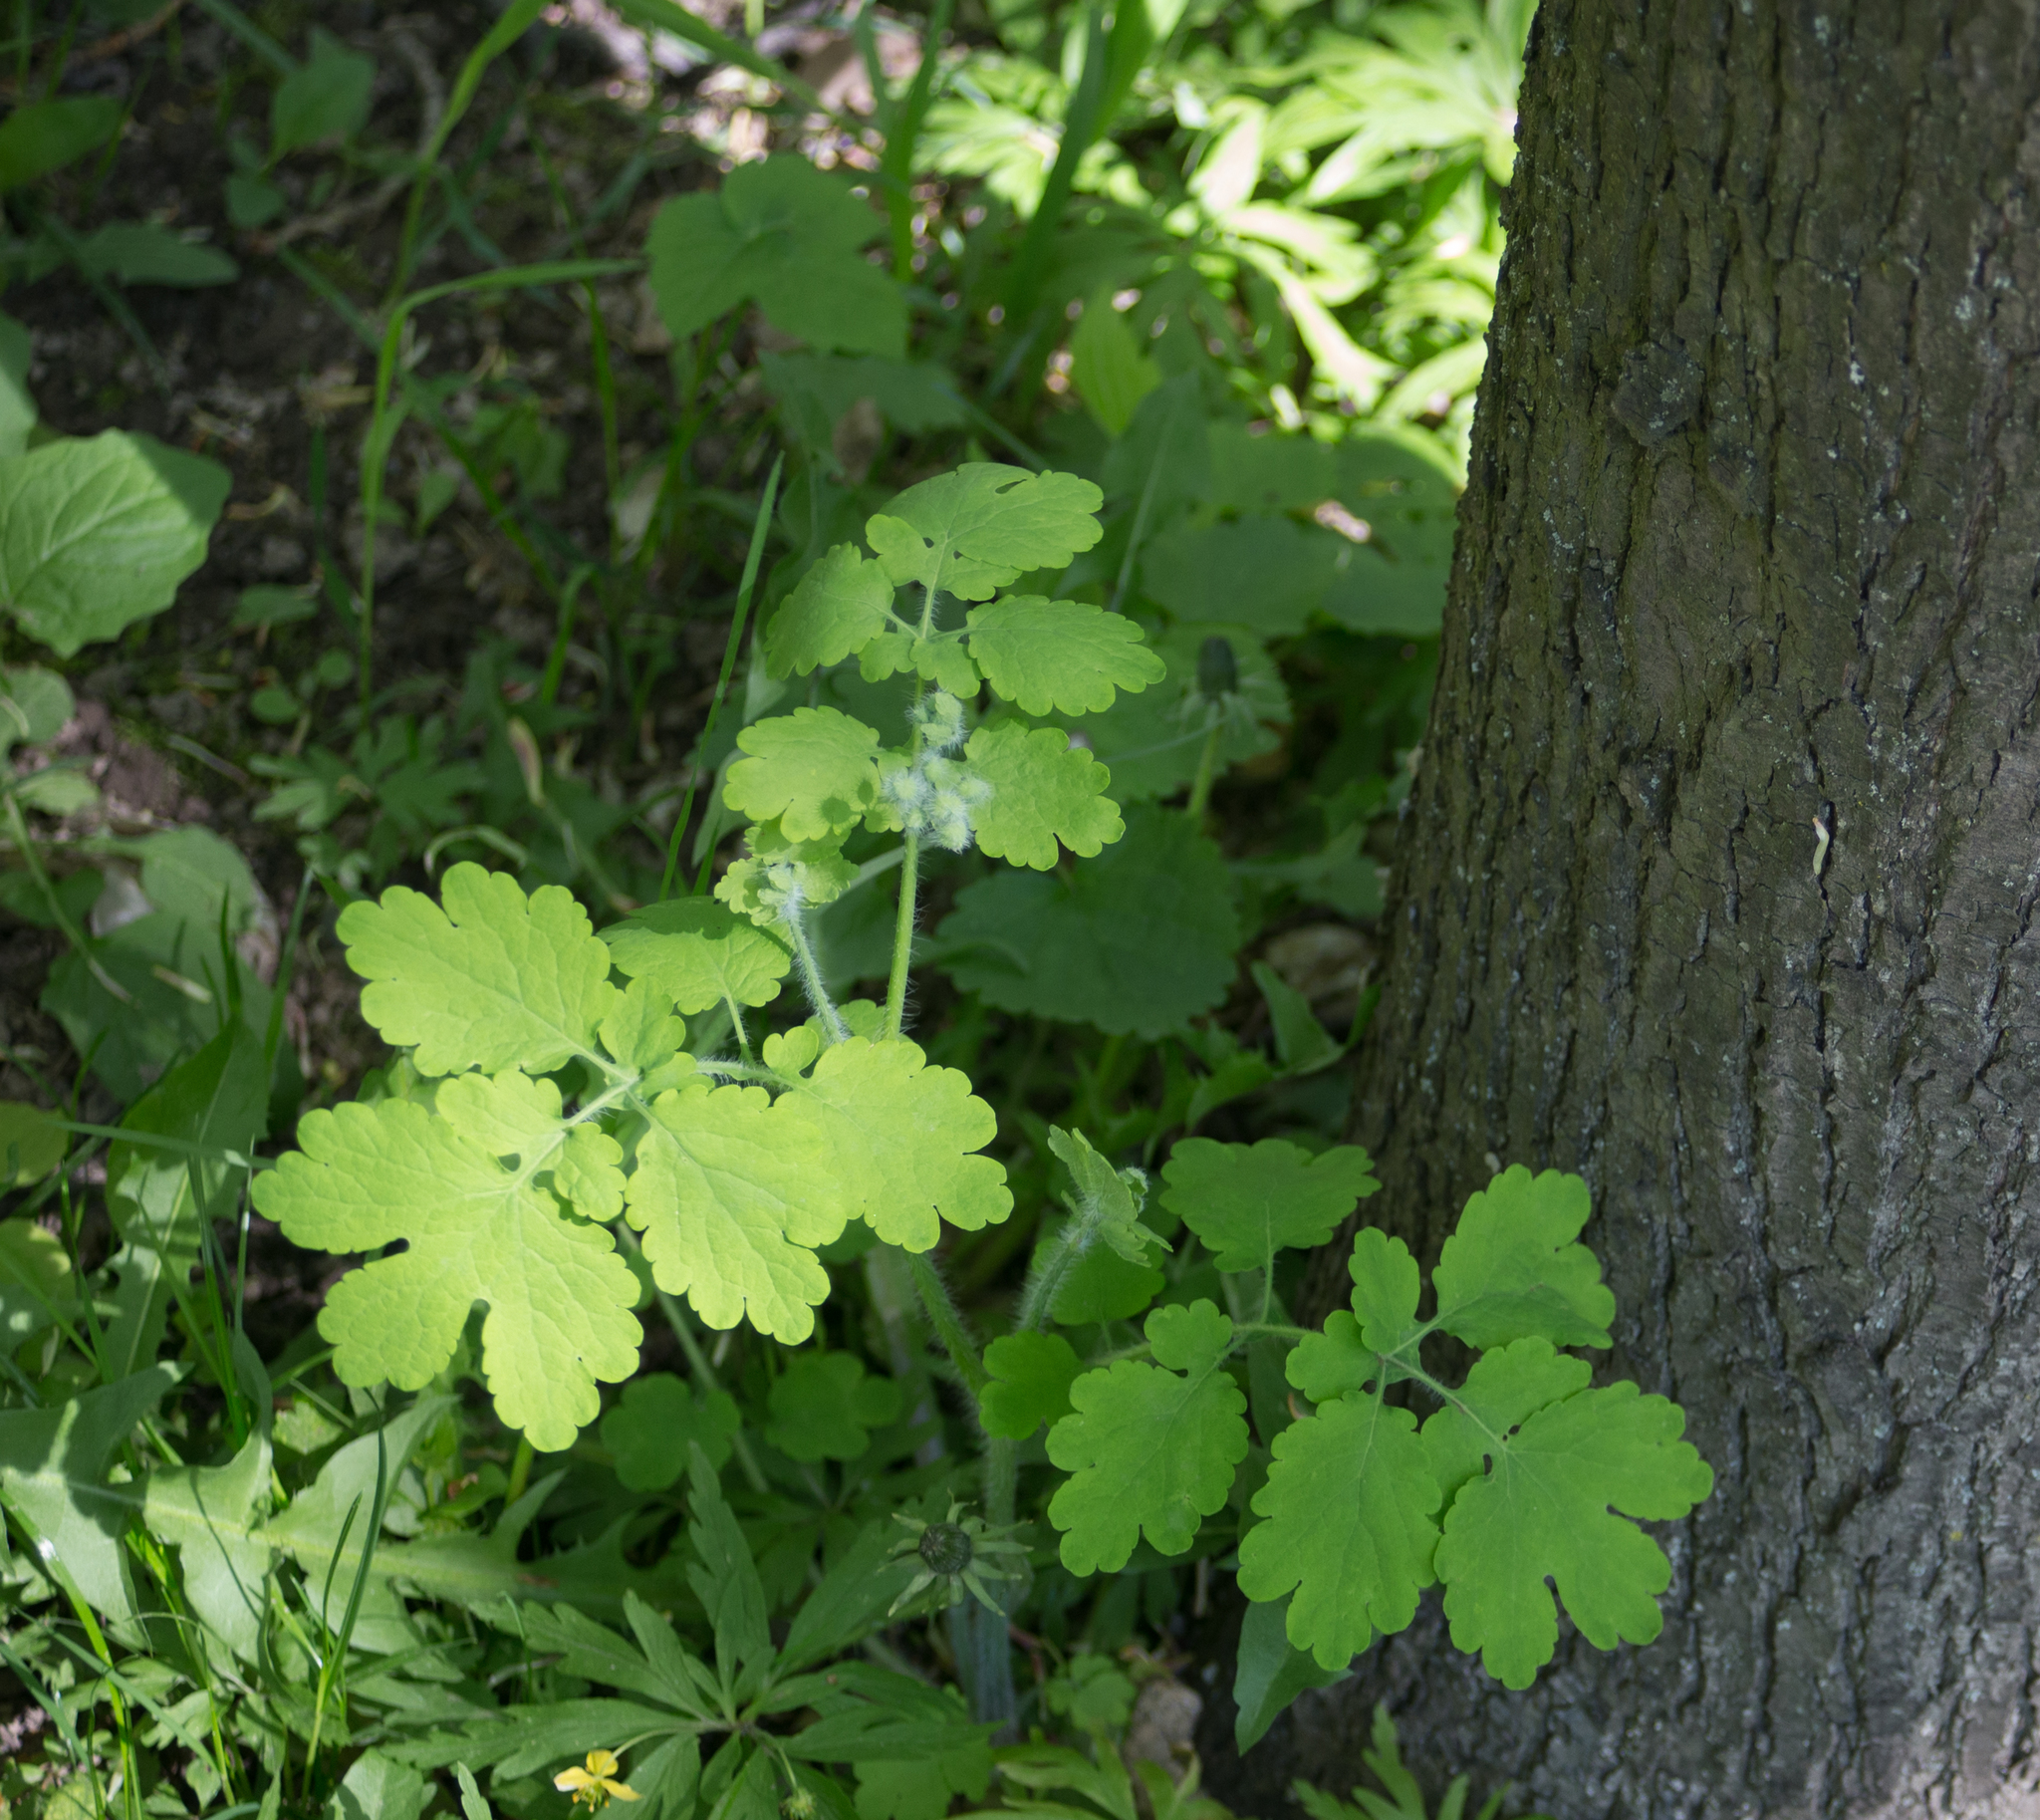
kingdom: Plantae
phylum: Tracheophyta
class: Magnoliopsida
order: Ranunculales
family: Papaveraceae
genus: Chelidonium
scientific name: Chelidonium majus
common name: Greater celandine
